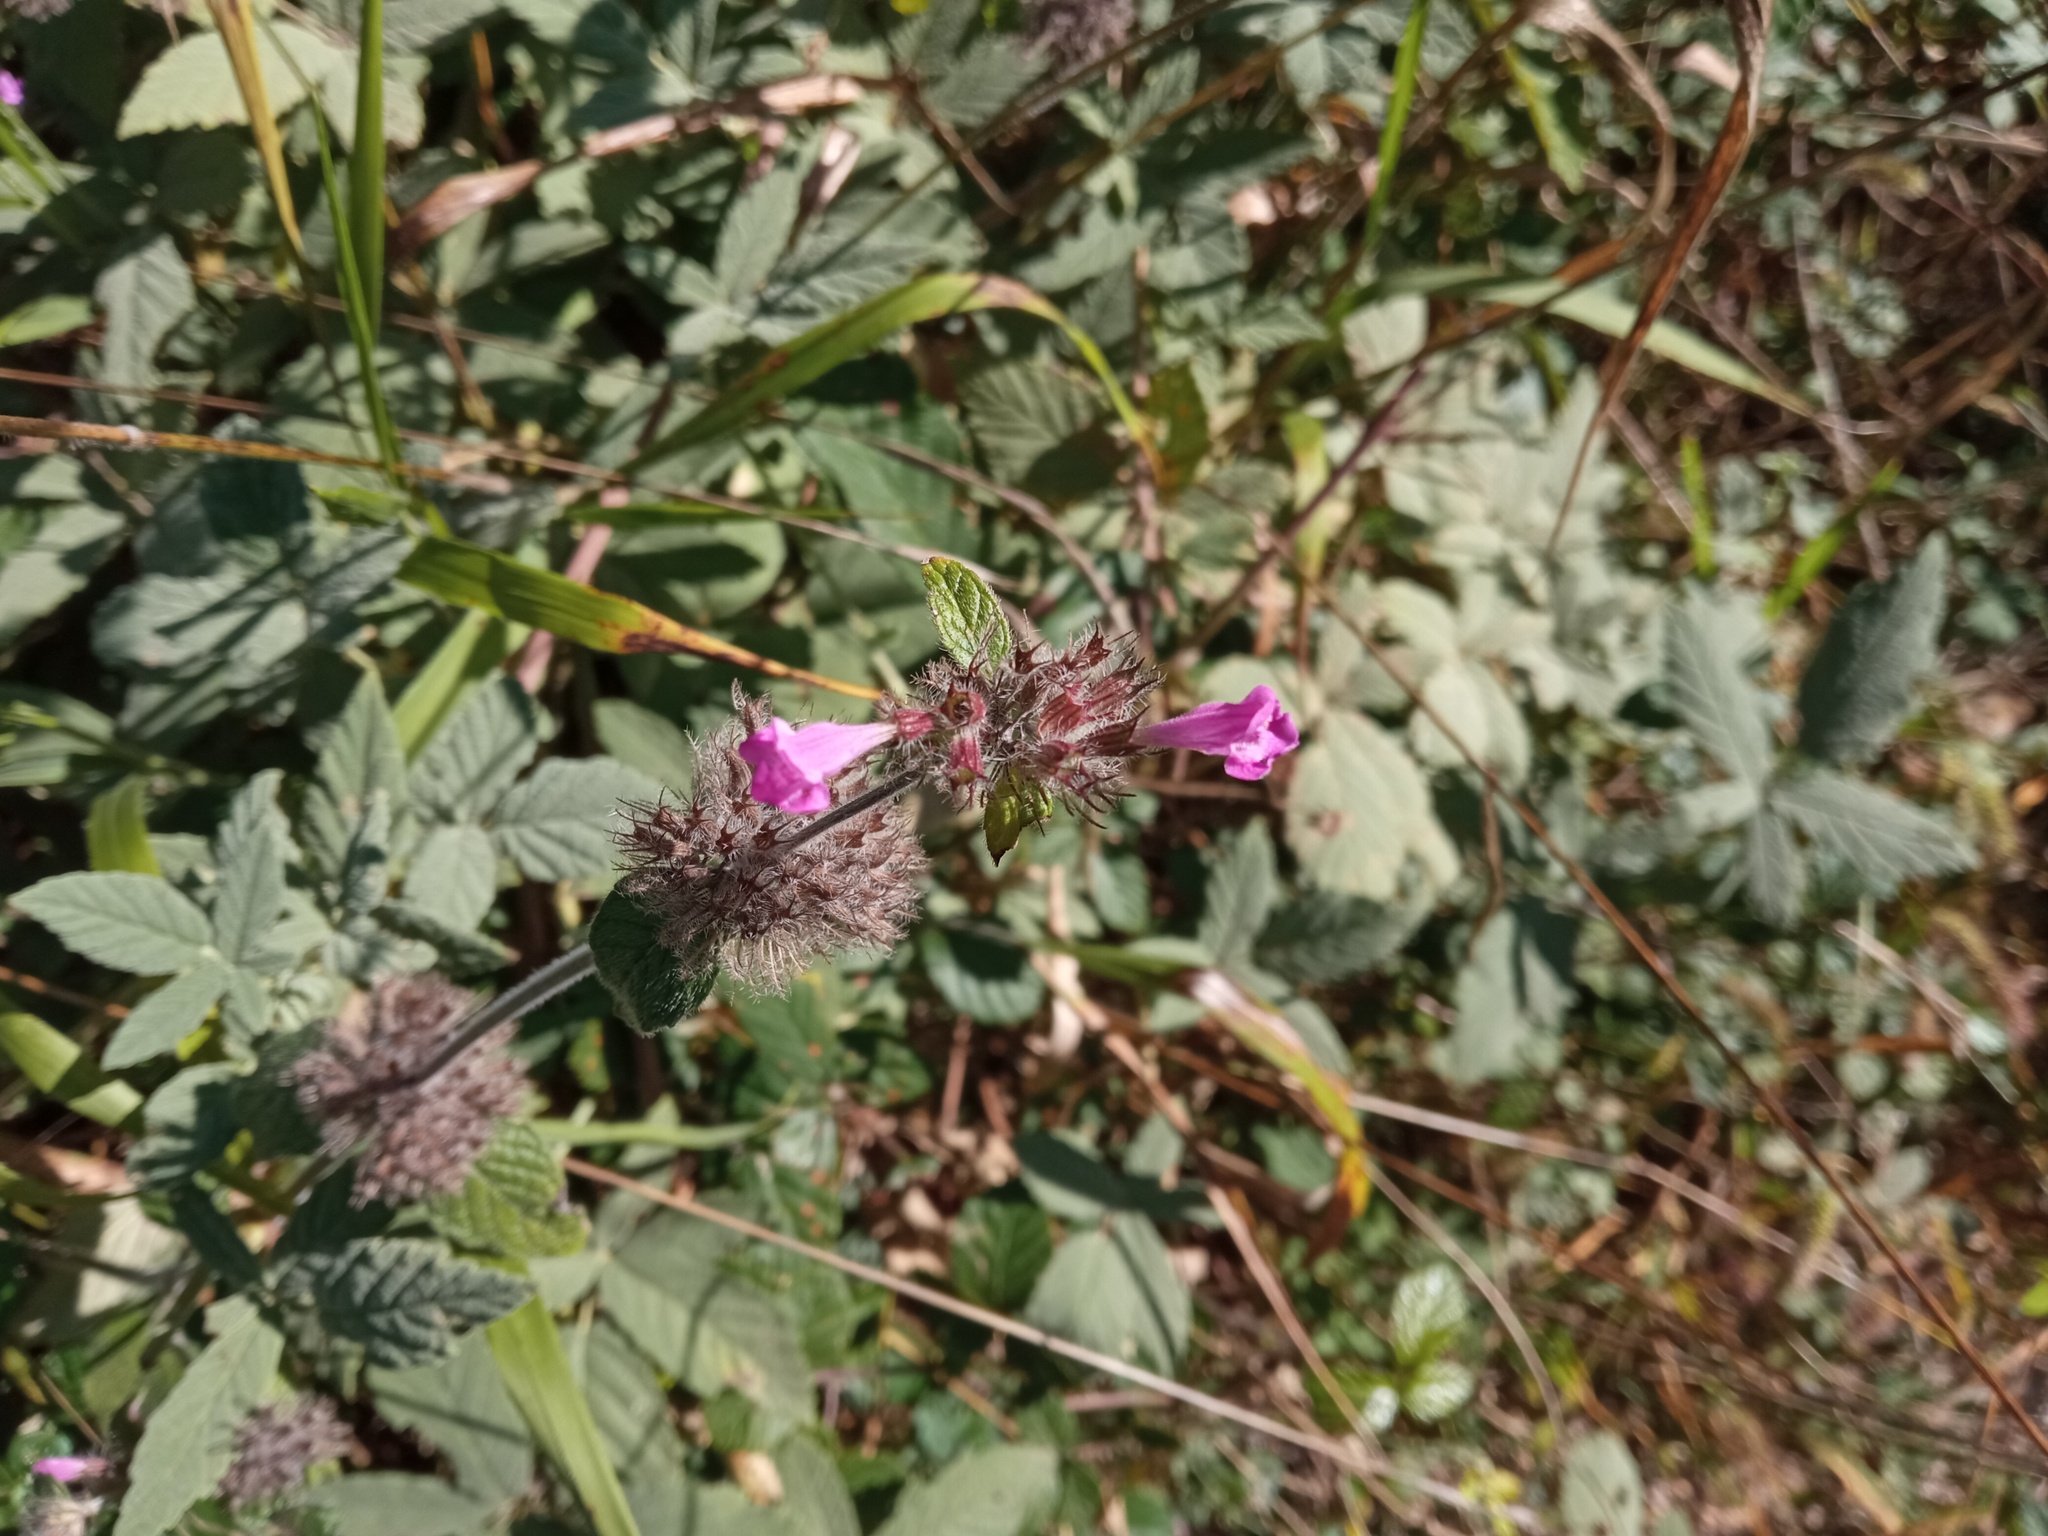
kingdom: Plantae
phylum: Tracheophyta
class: Magnoliopsida
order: Lamiales
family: Lamiaceae
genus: Clinopodium
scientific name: Clinopodium vulgare
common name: Wild basil
